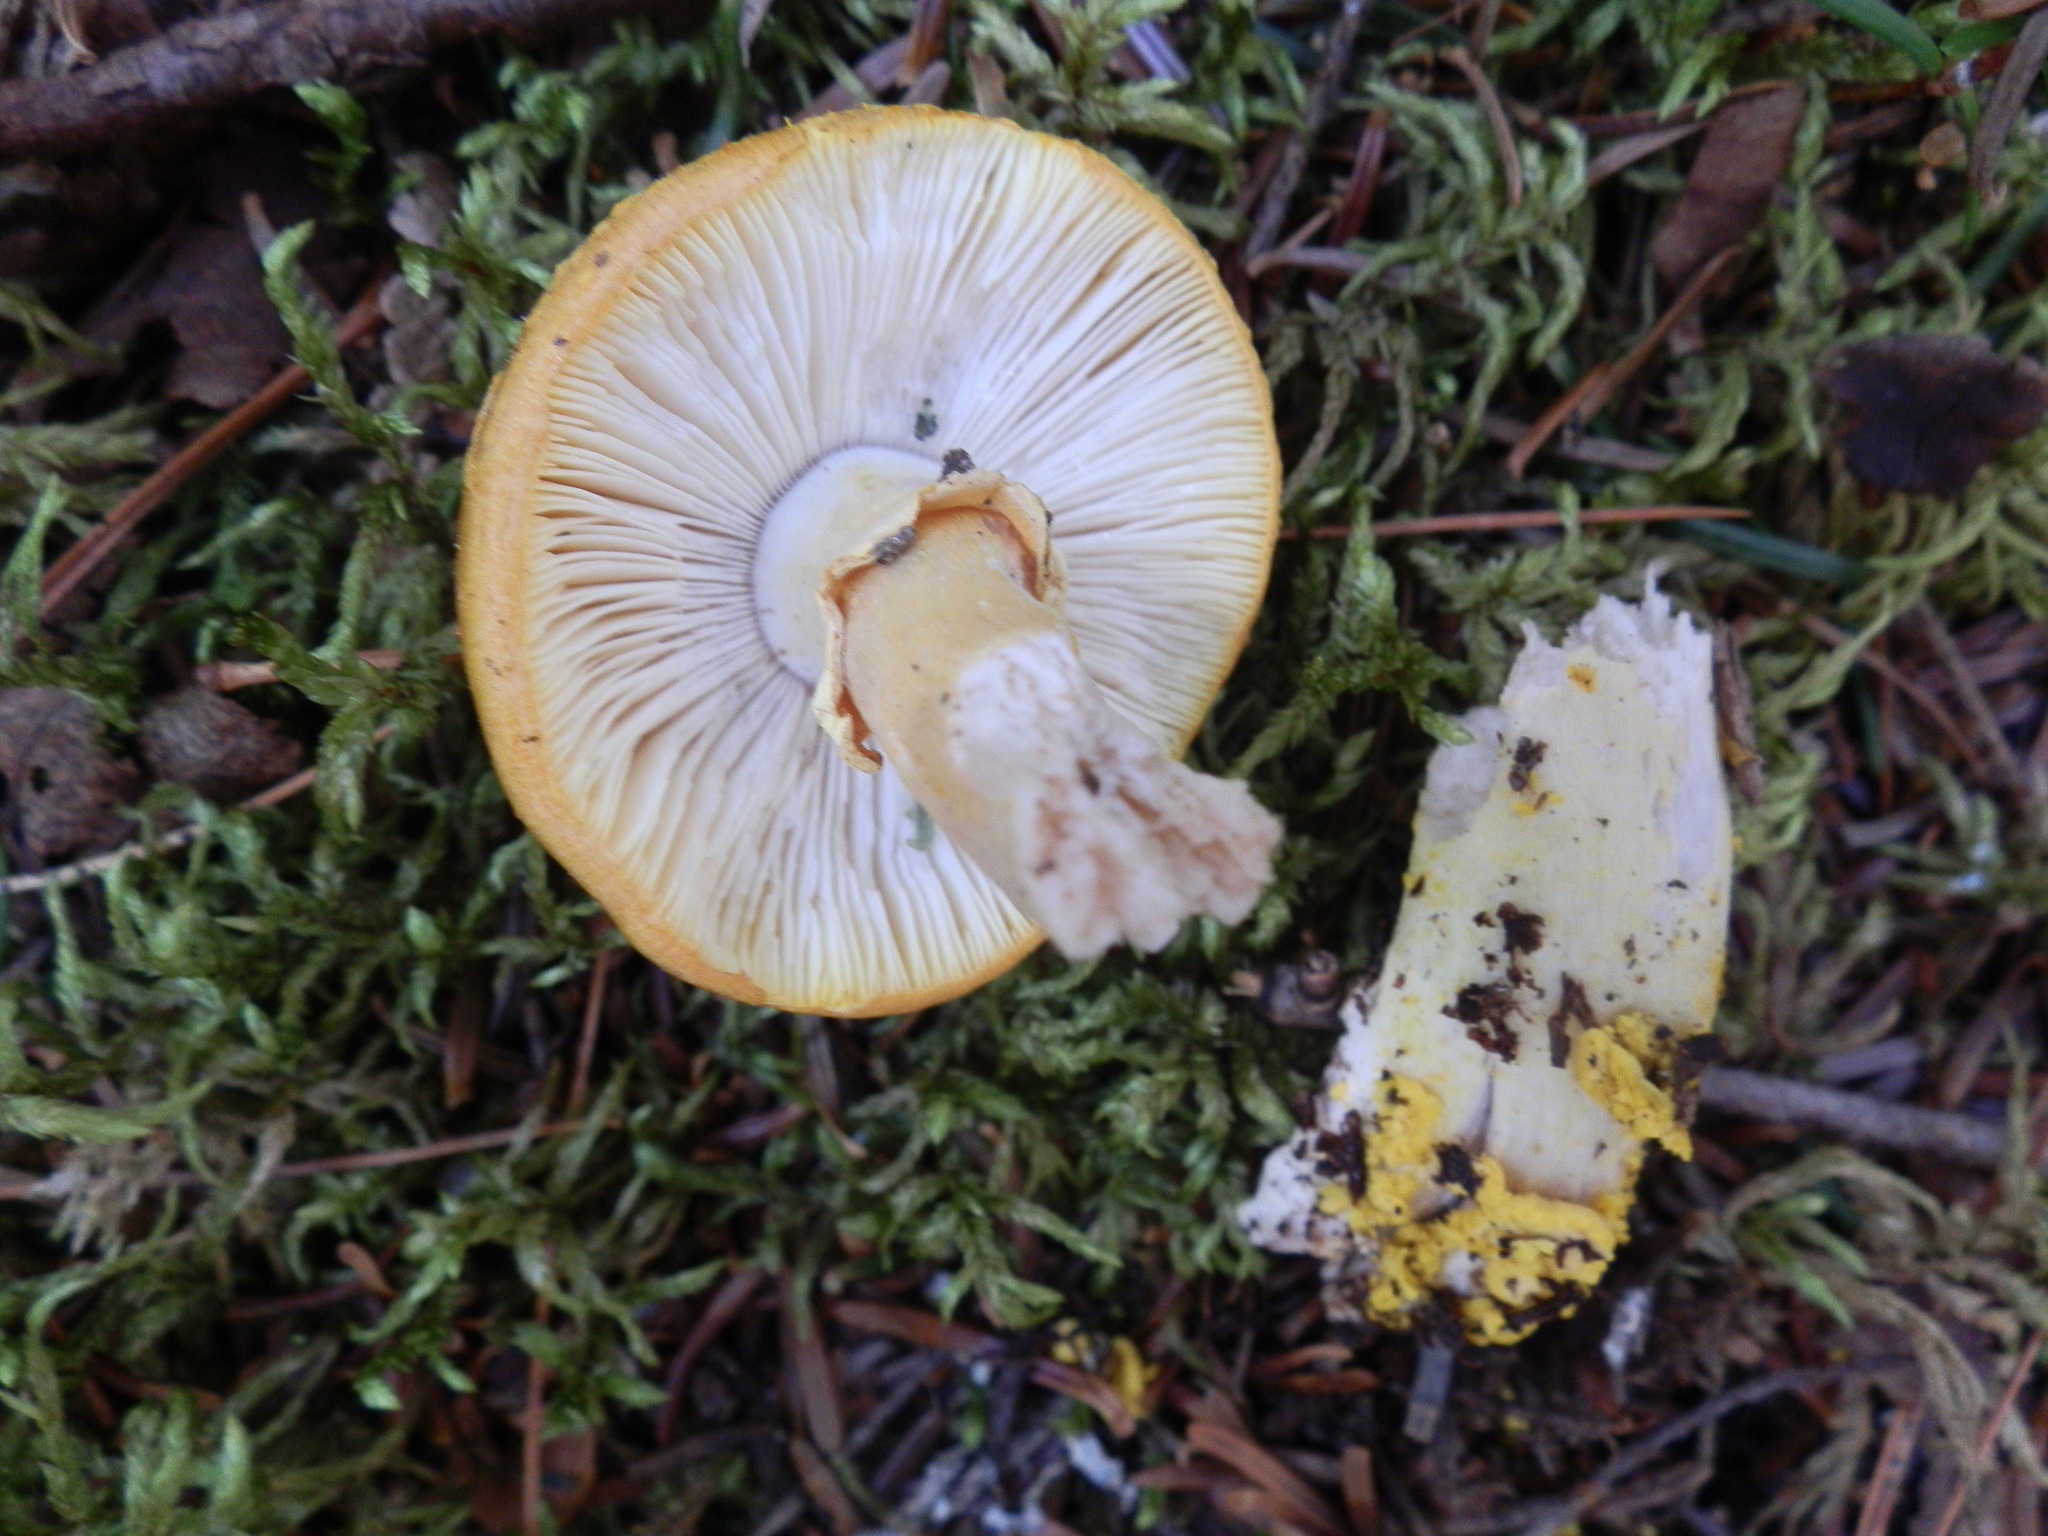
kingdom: Fungi
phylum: Basidiomycota
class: Agaricomycetes
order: Agaricales
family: Amanitaceae
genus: Amanita
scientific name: Amanita flavoconia
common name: Yellow patches
